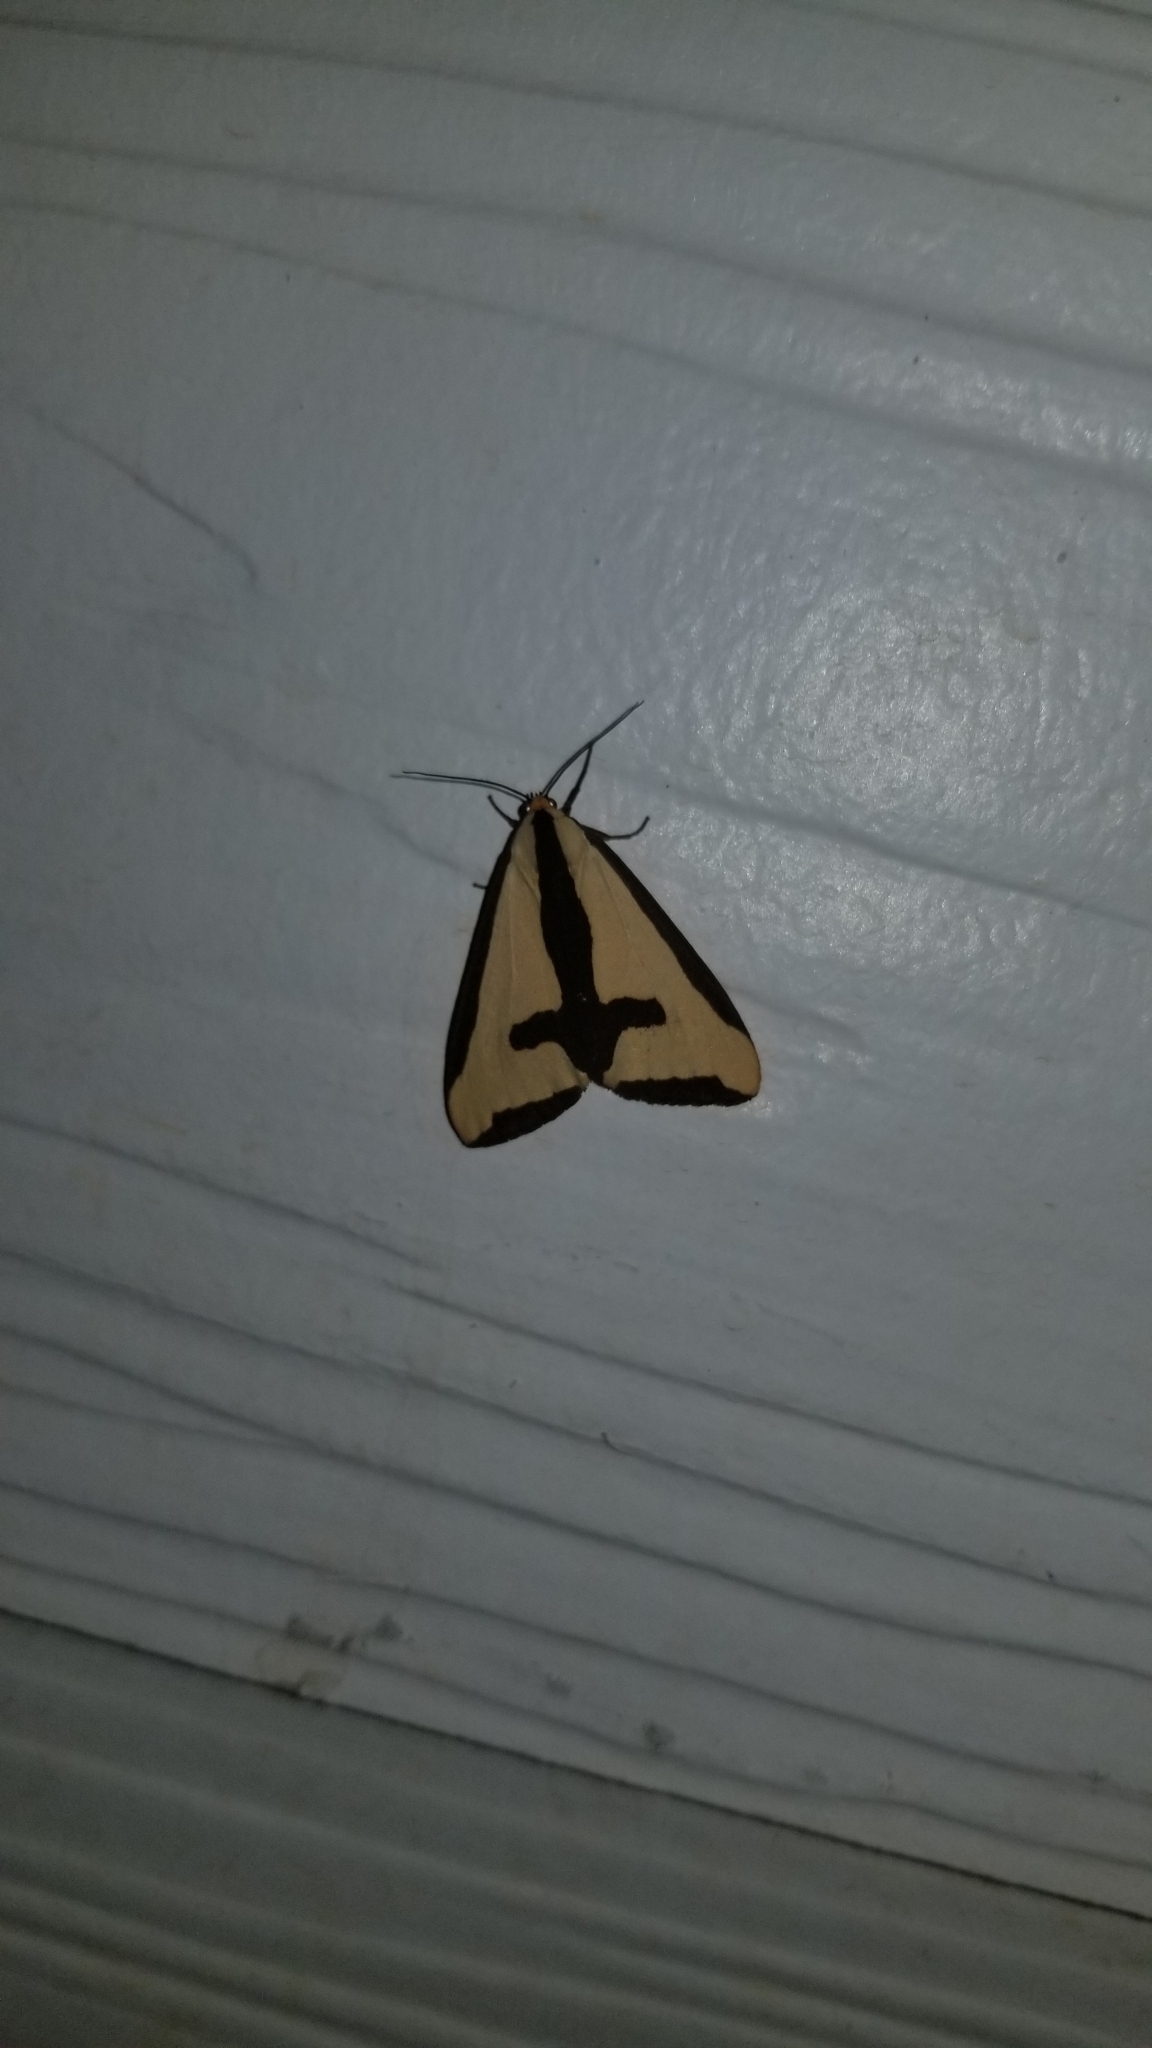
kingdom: Animalia
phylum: Arthropoda
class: Insecta
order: Lepidoptera
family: Erebidae
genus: Haploa
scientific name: Haploa clymene
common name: Clymene moth
